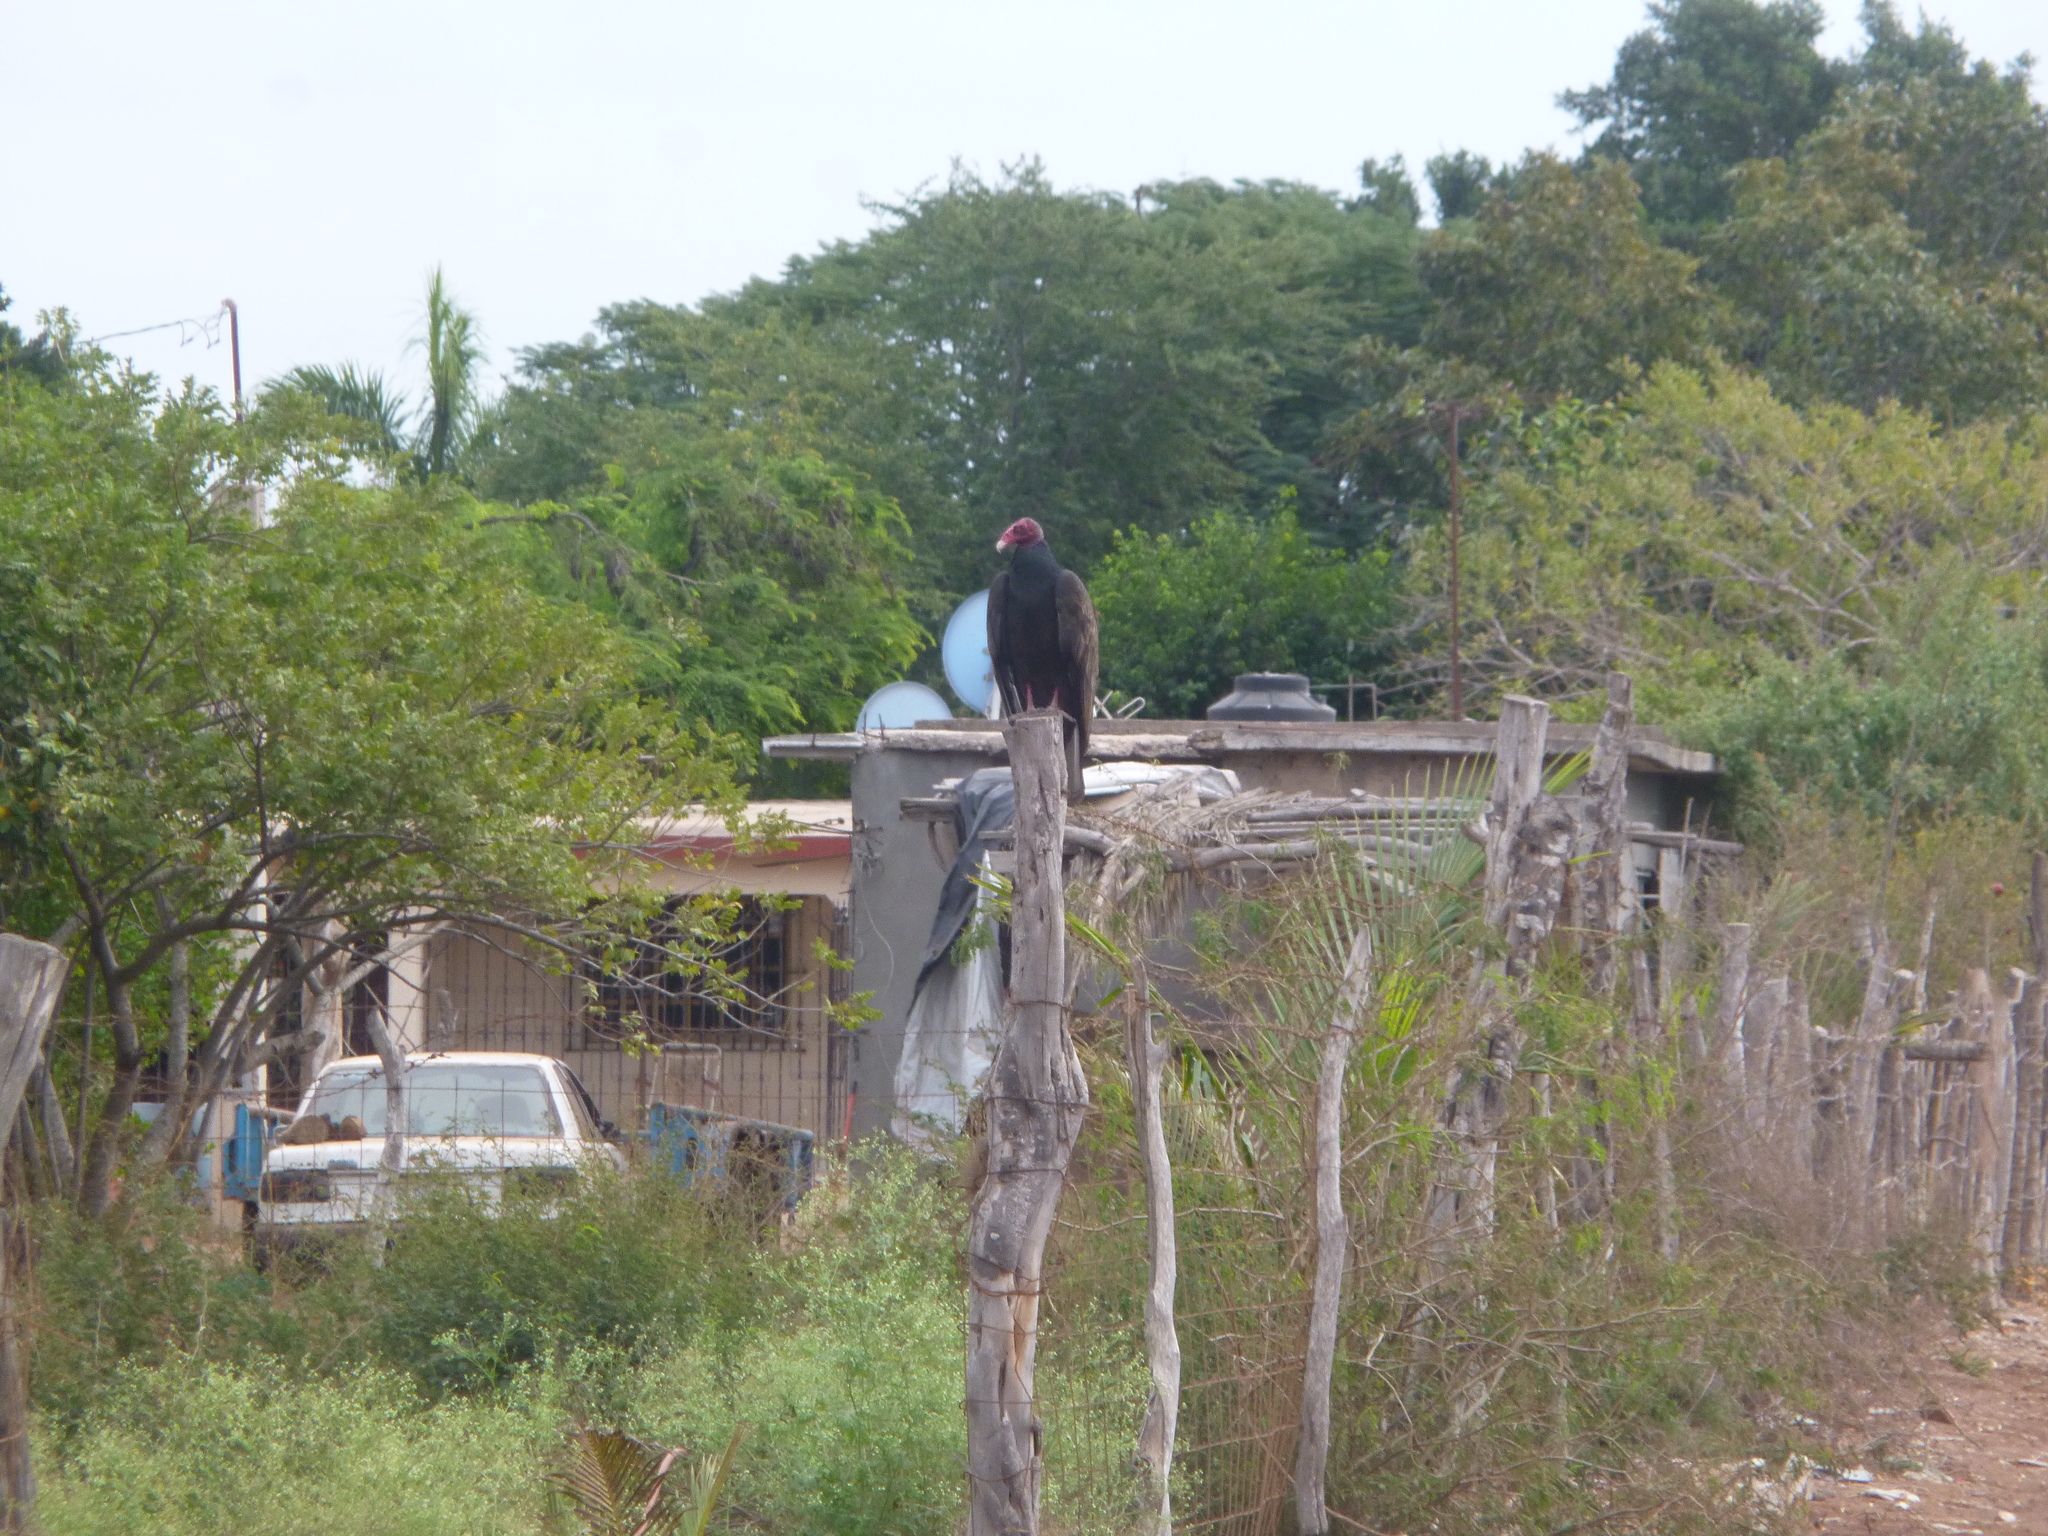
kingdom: Animalia
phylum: Chordata
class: Aves
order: Accipitriformes
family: Cathartidae
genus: Cathartes
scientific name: Cathartes aura
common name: Turkey vulture
